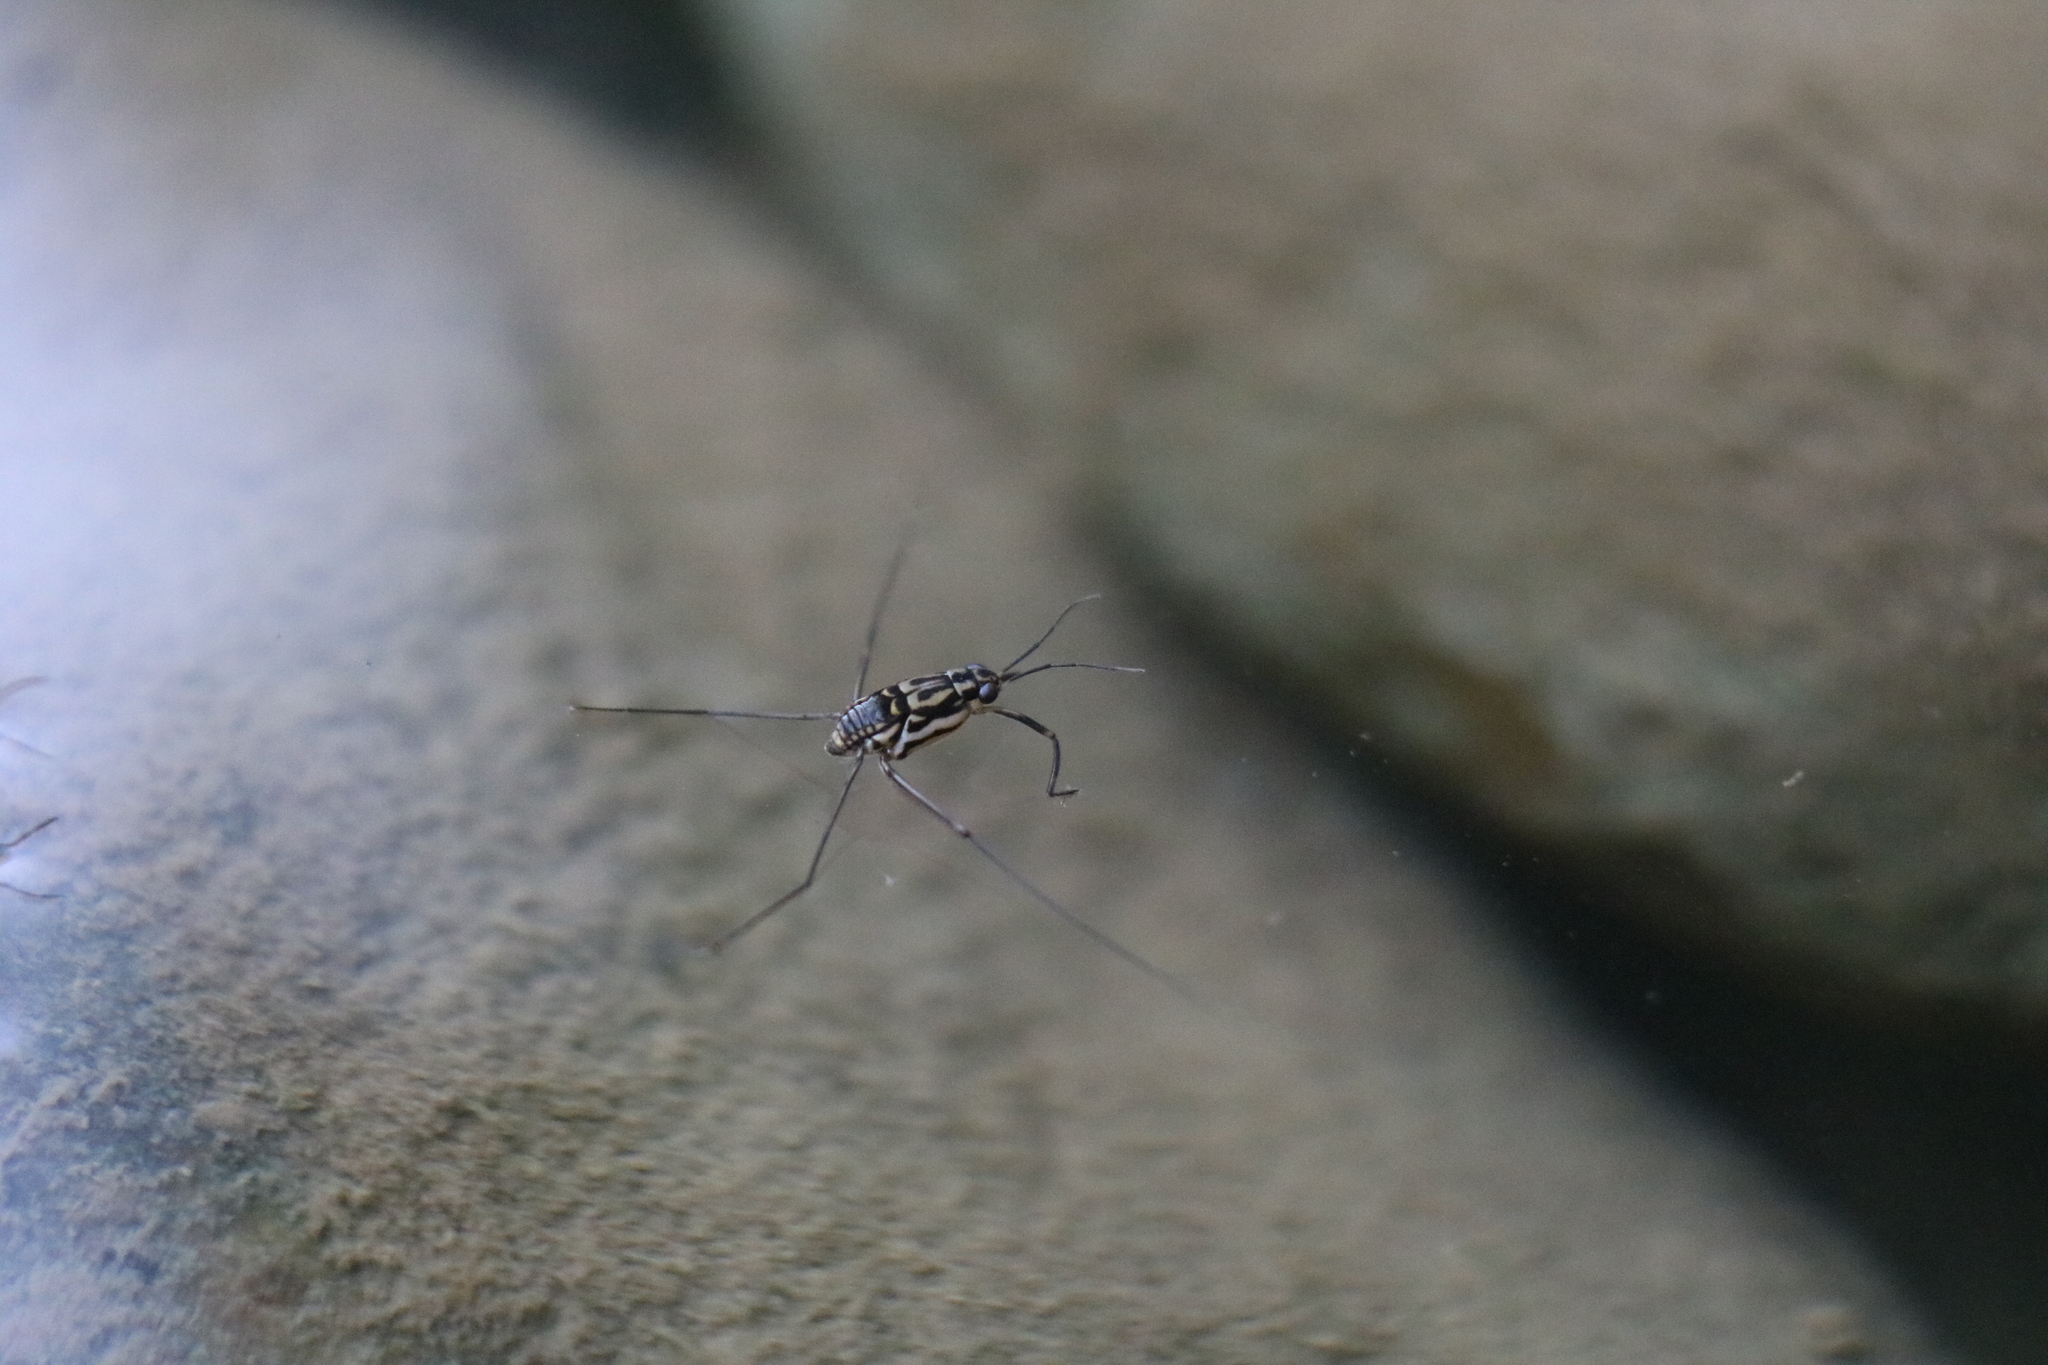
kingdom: Animalia
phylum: Arthropoda
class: Insecta
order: Hemiptera
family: Gerridae
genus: Trepobates
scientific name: Trepobates inermis
